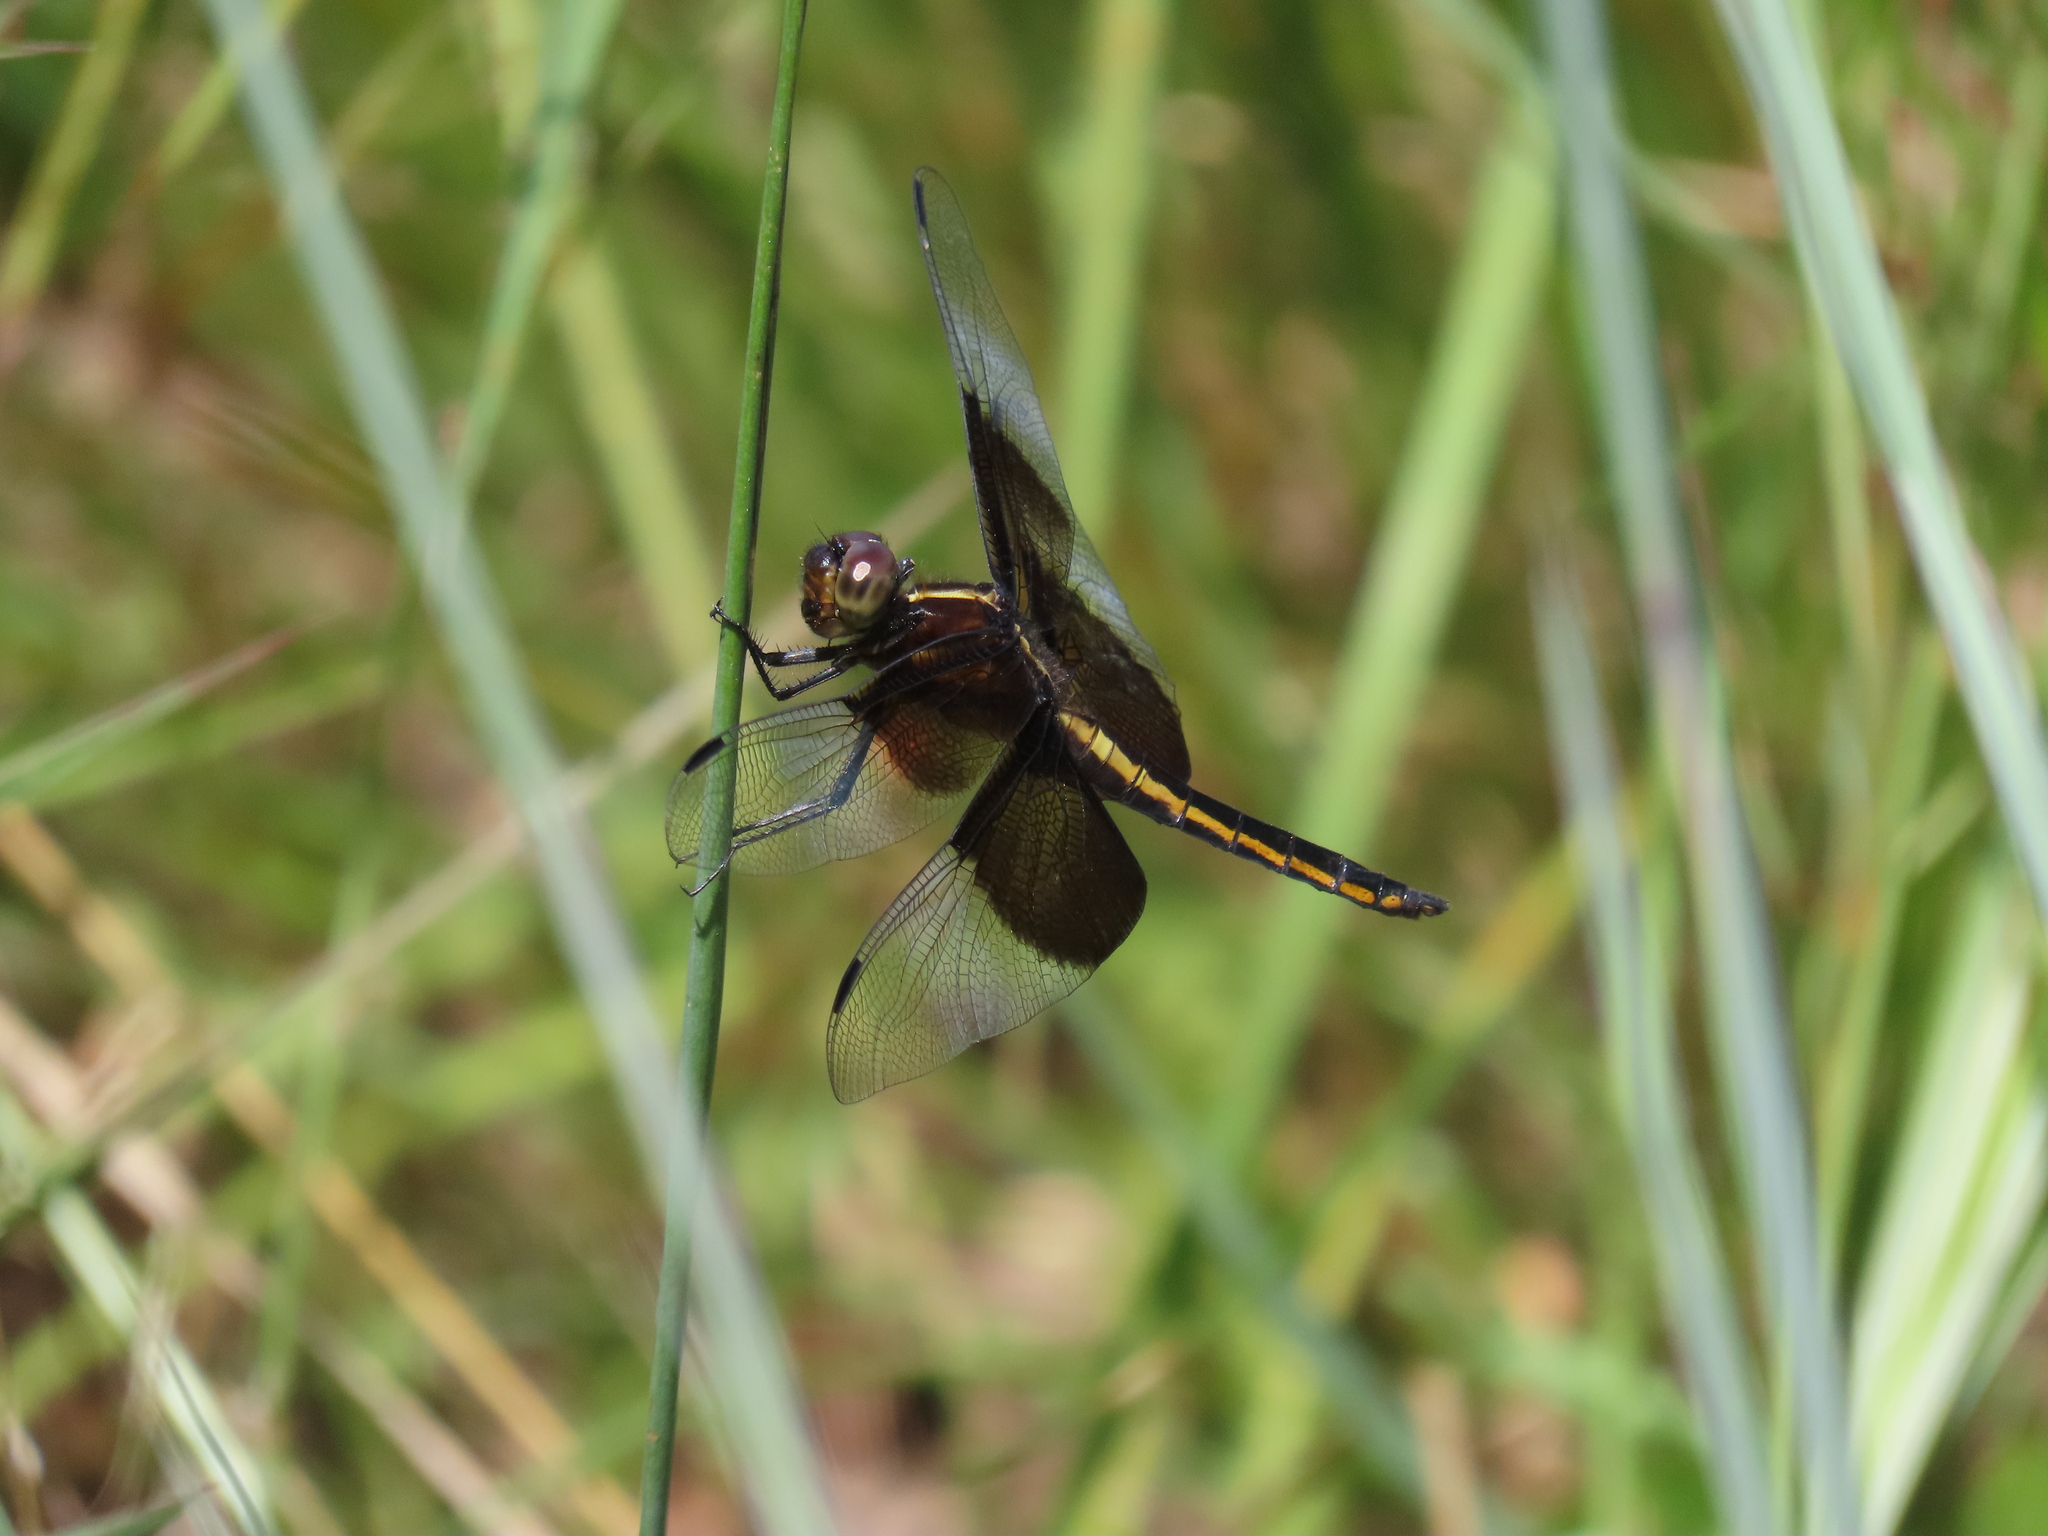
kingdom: Animalia
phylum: Arthropoda
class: Insecta
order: Odonata
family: Libellulidae
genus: Libellula
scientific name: Libellula luctuosa
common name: Widow skimmer
